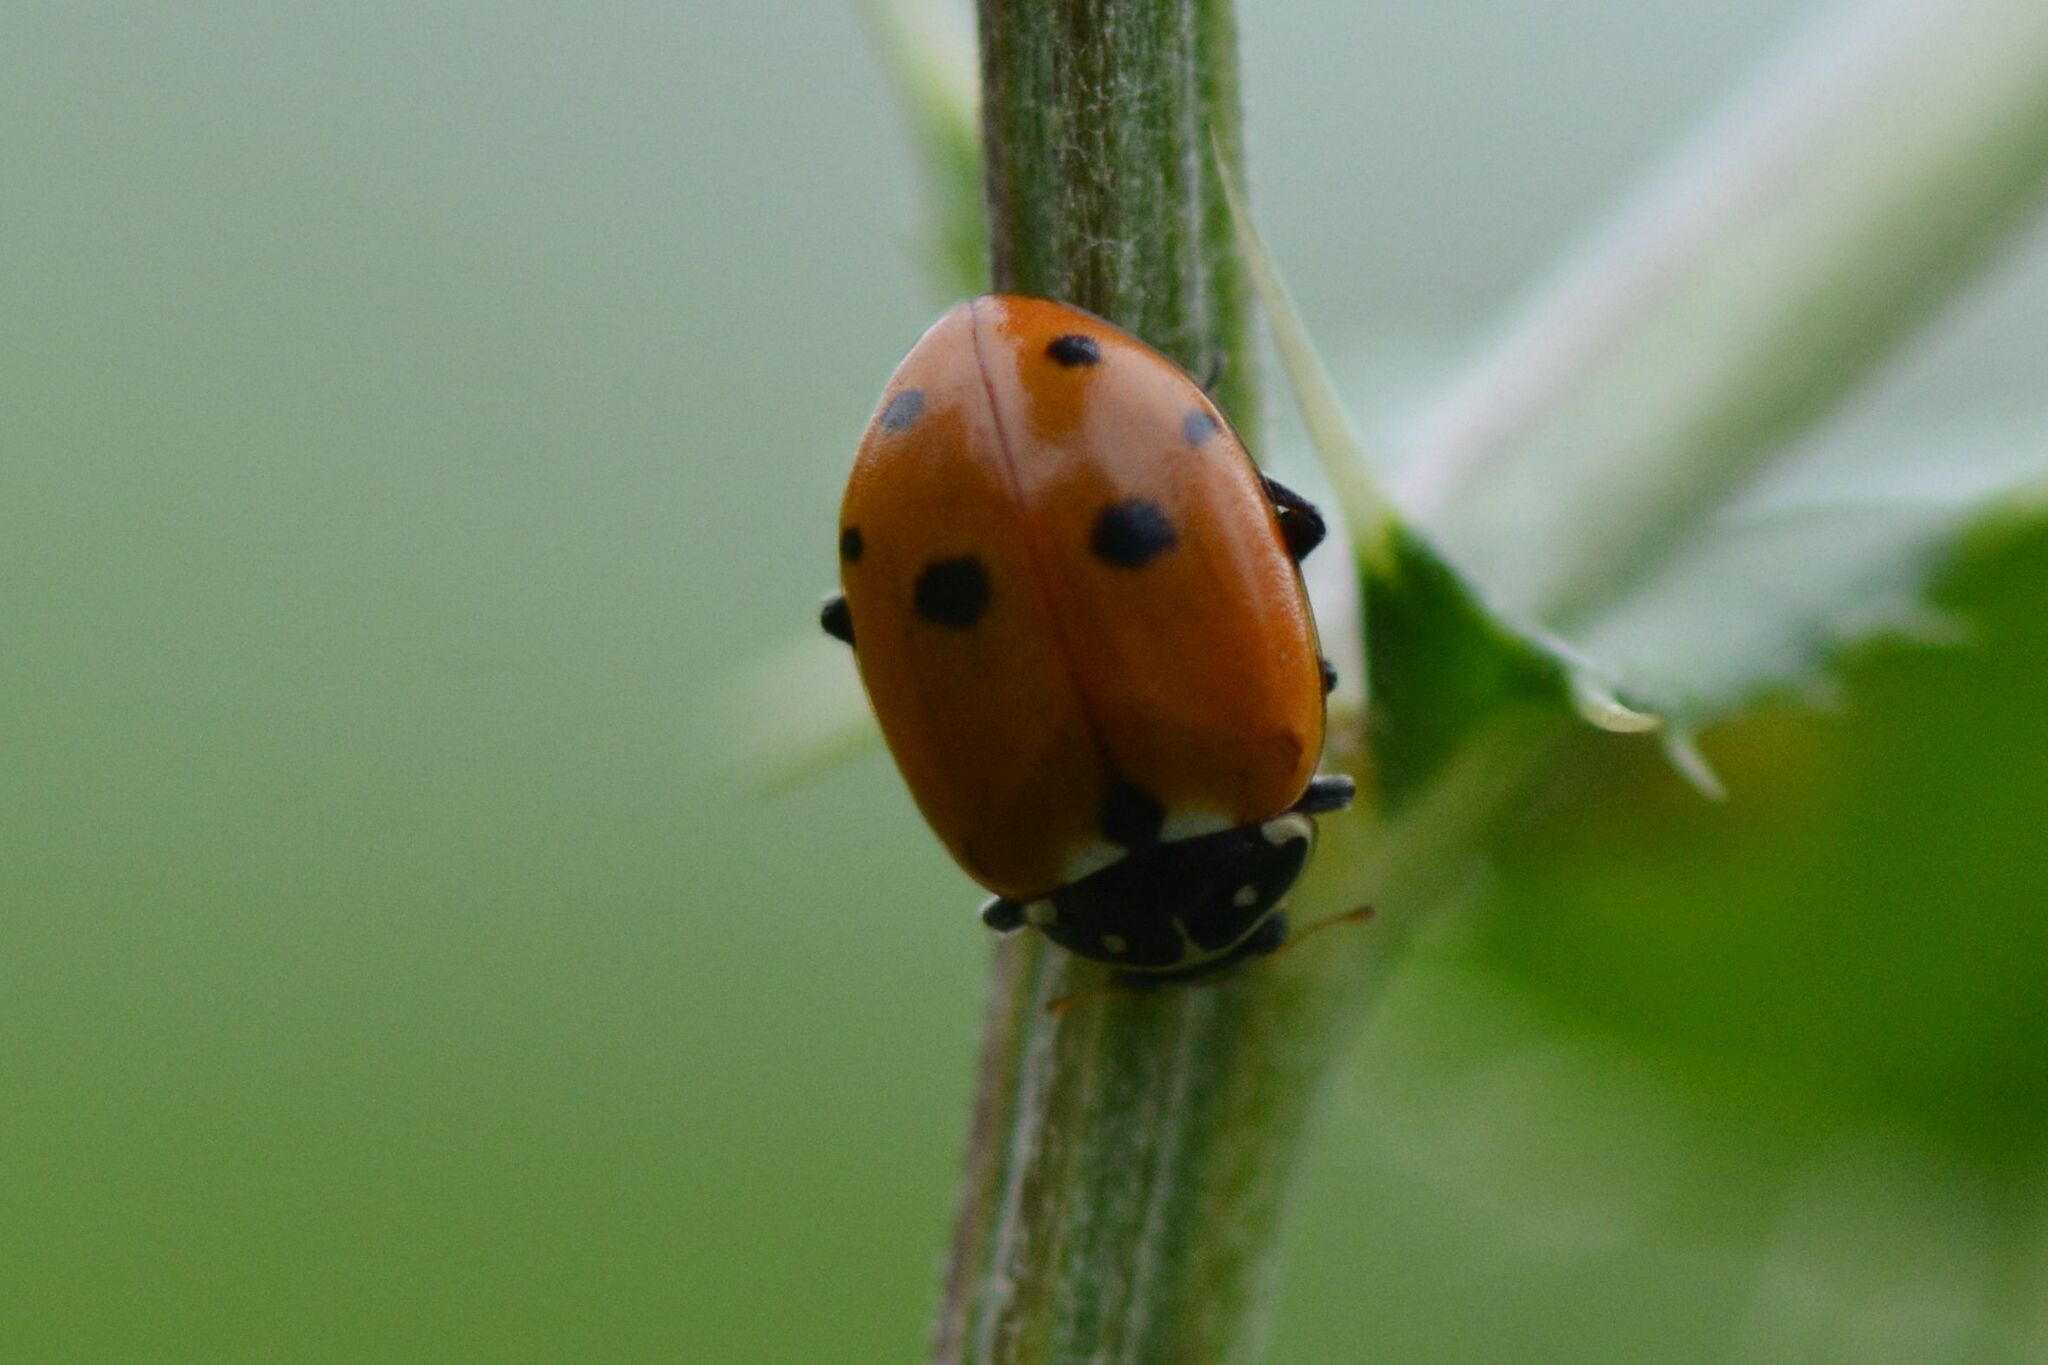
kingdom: Animalia
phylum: Arthropoda
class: Insecta
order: Coleoptera
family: Coccinellidae
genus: Hippodamia
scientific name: Hippodamia variegata
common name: Ladybird beetle
